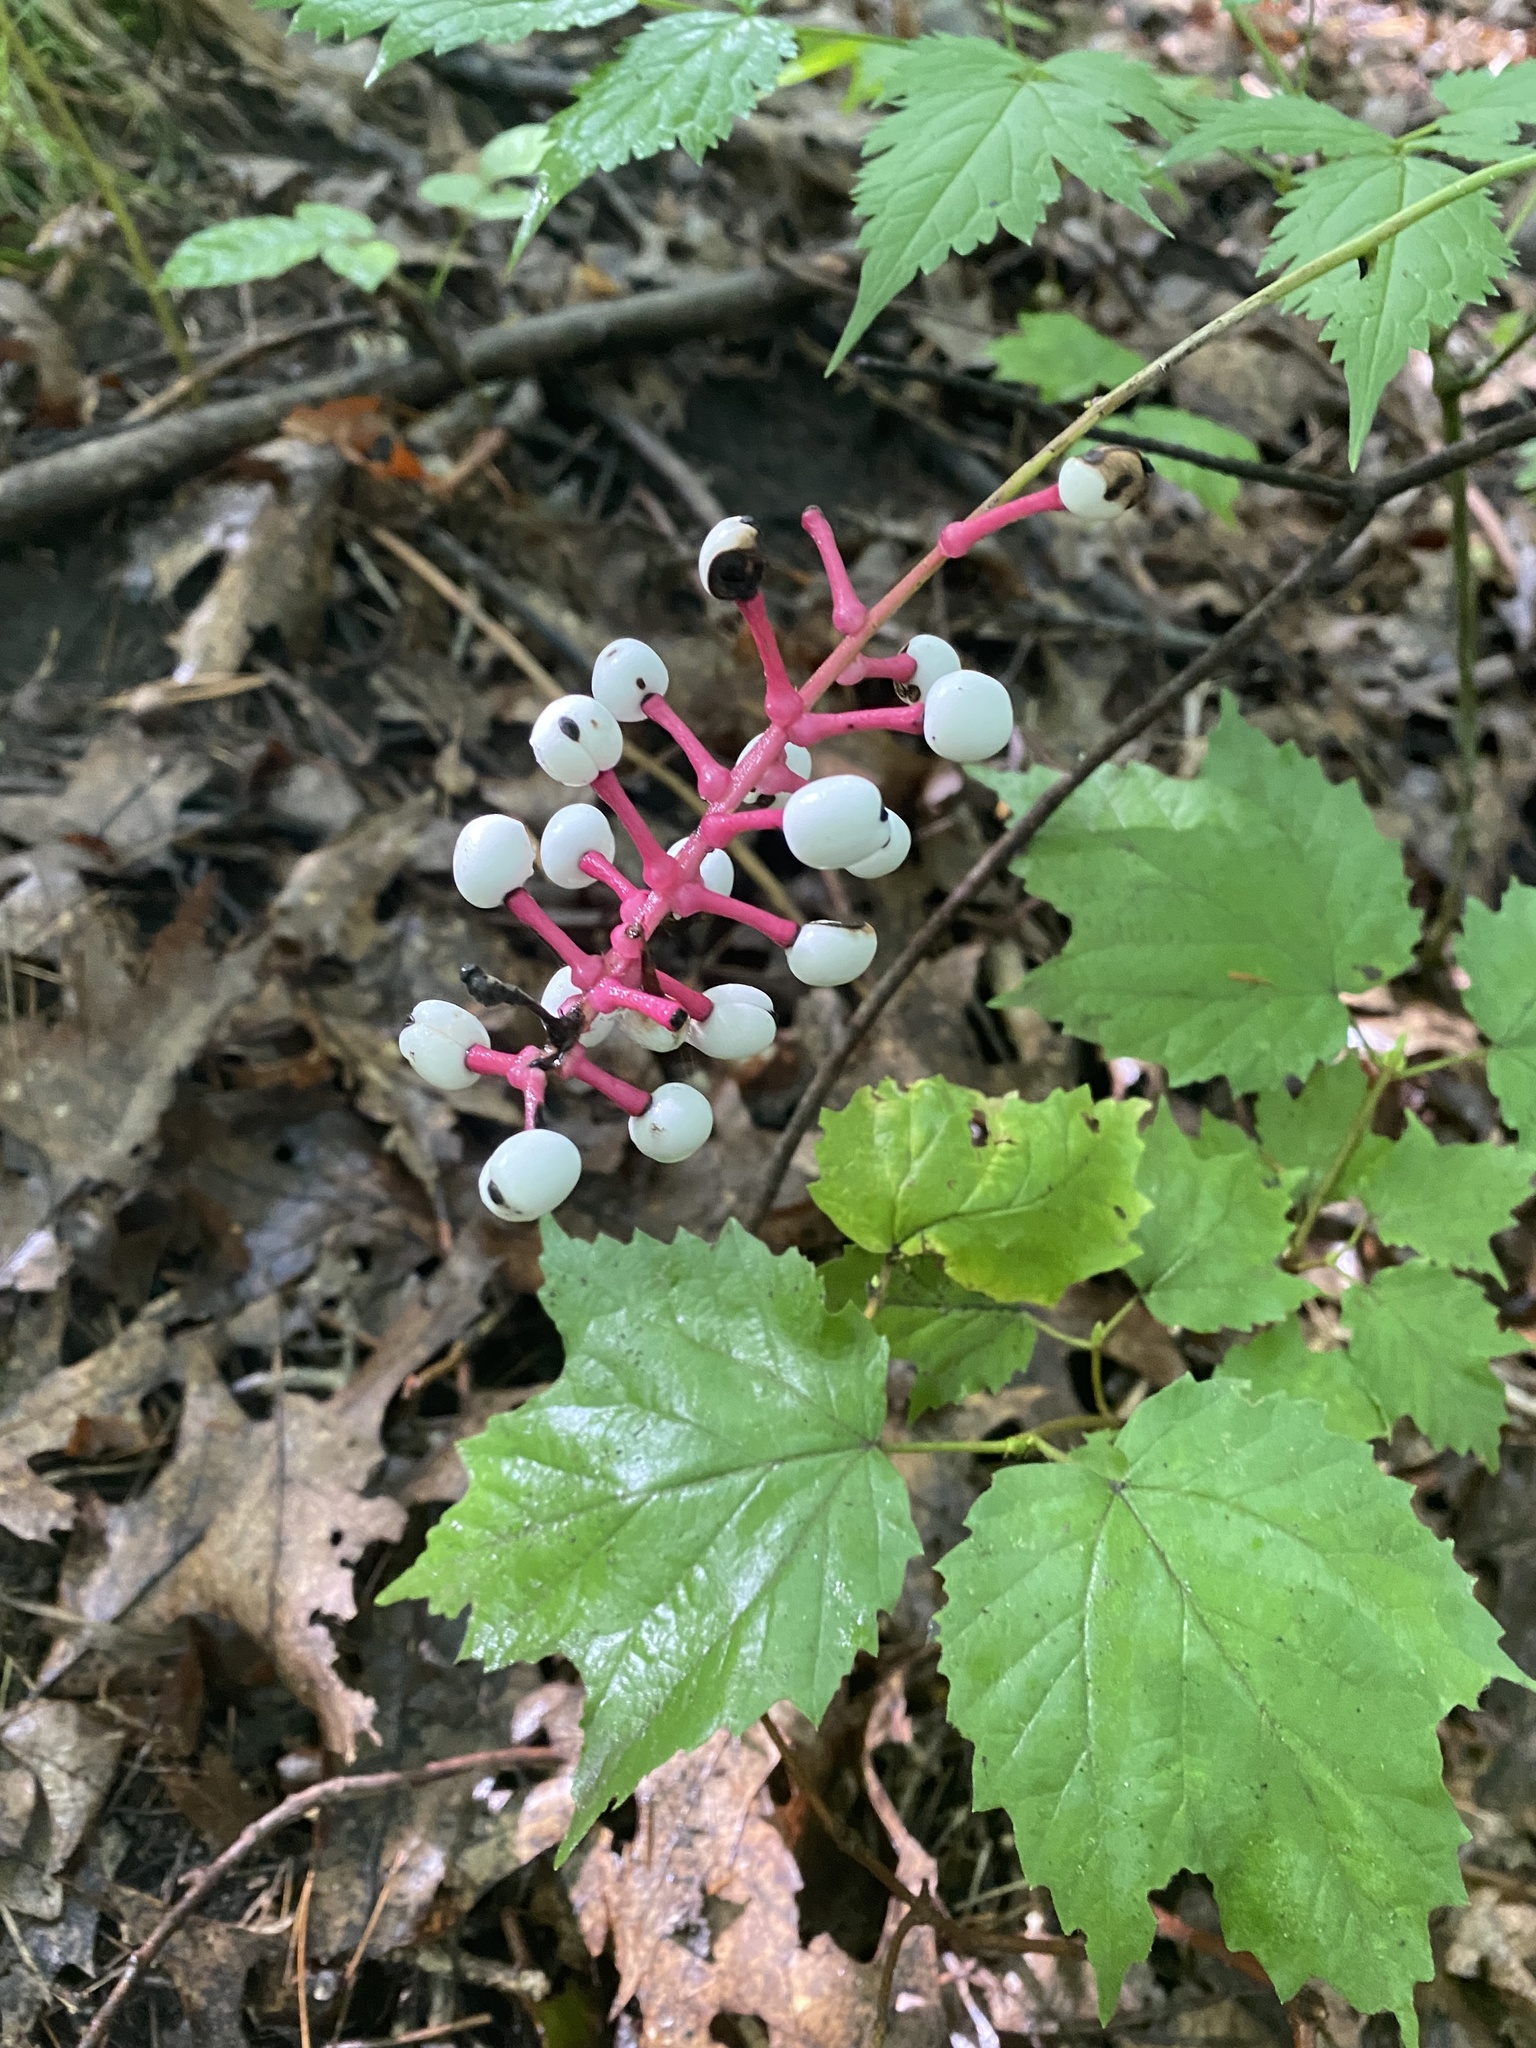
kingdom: Plantae
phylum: Tracheophyta
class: Magnoliopsida
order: Ranunculales
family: Ranunculaceae
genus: Actaea
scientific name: Actaea pachypoda
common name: Doll's-eyes
